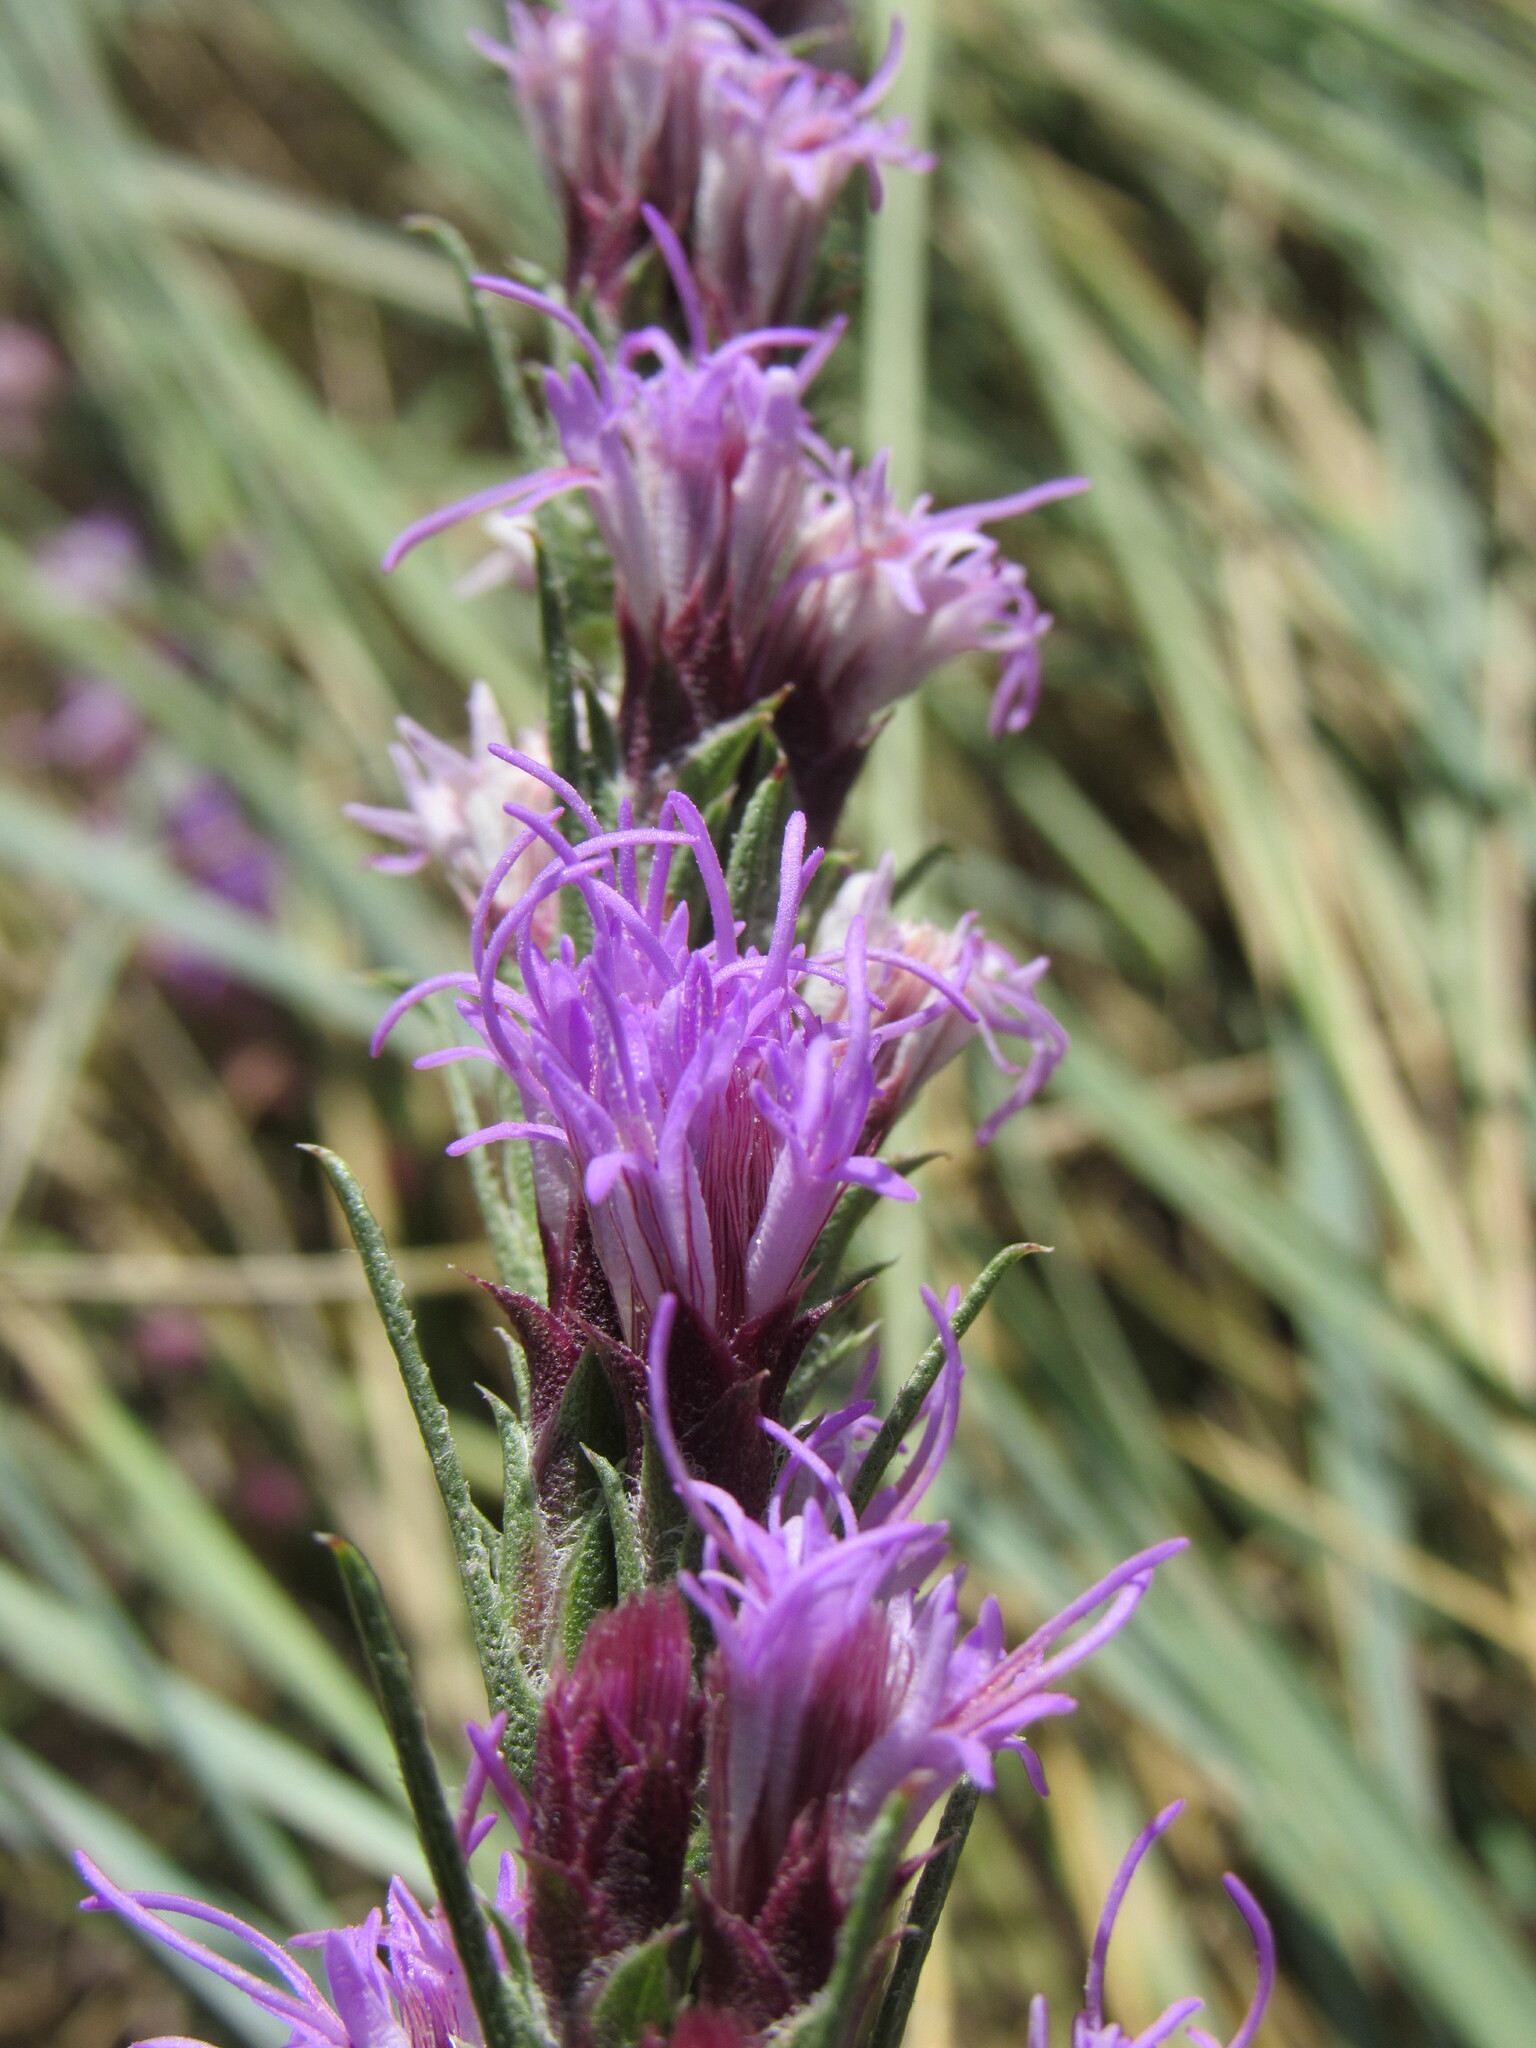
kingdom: Plantae
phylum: Tracheophyta
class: Magnoliopsida
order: Asterales
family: Asteraceae
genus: Liatris
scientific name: Liatris punctata
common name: Dotted gayfeather
